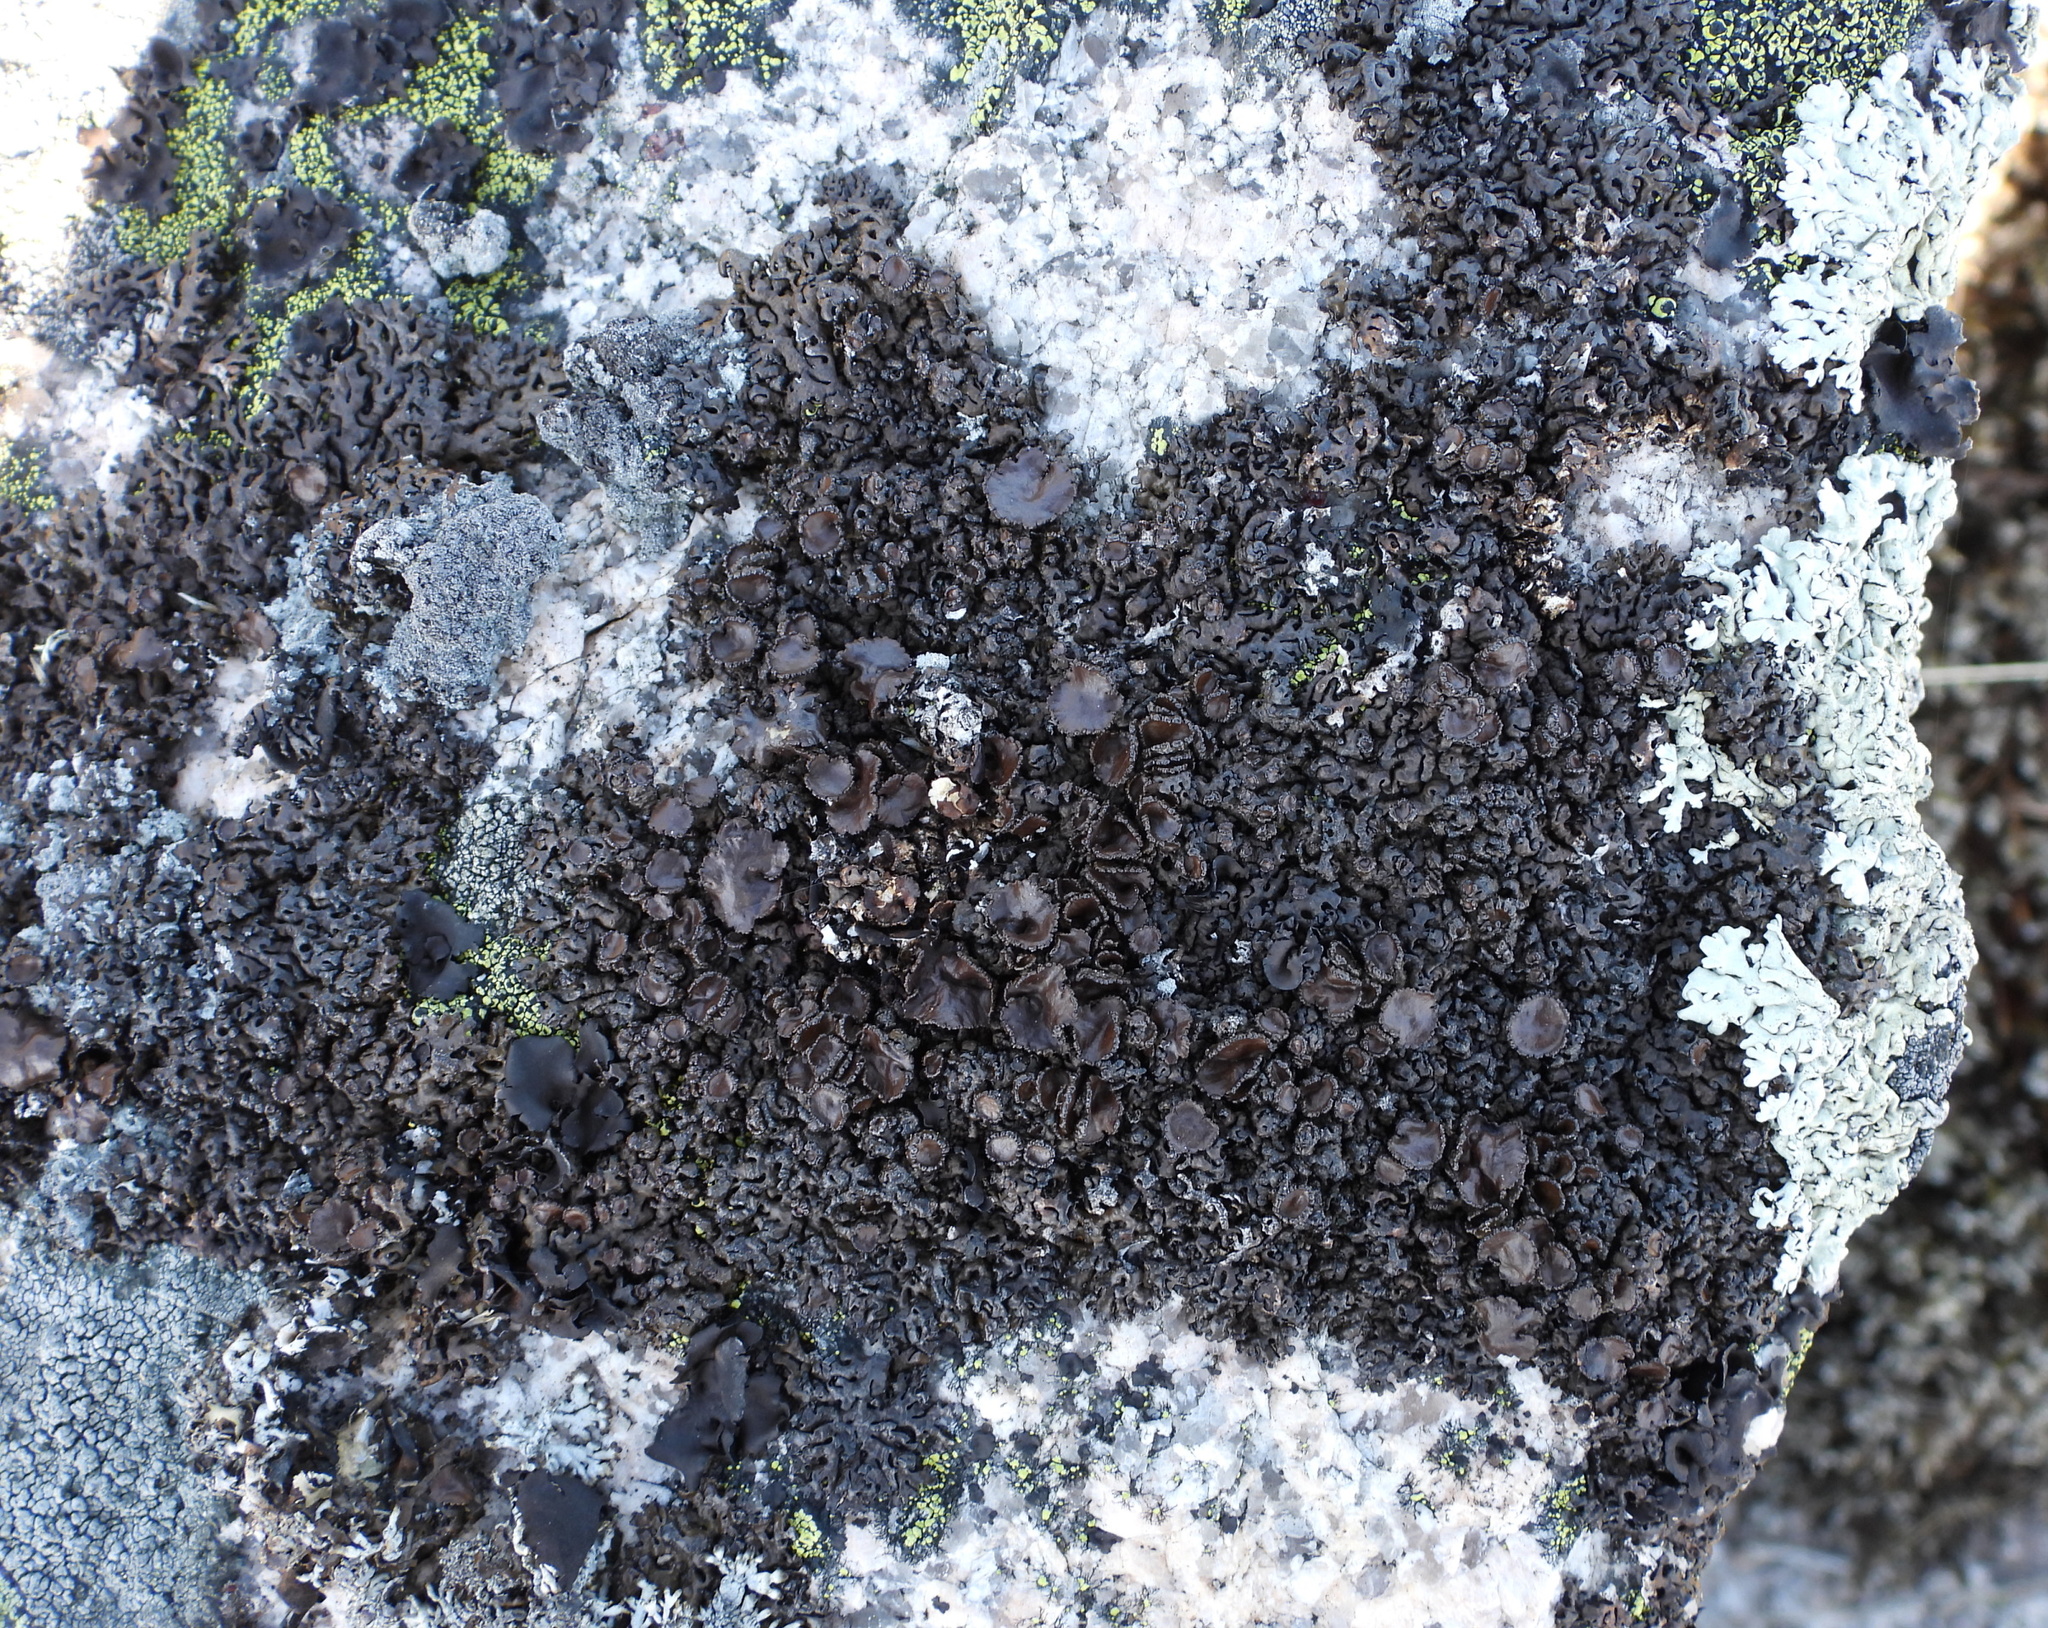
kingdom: Fungi
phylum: Ascomycota
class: Lecanoromycetes
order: Lecanorales
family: Parmeliaceae
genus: Melanelia
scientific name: Melanelia stygia
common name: Alpine camouflage lichen
